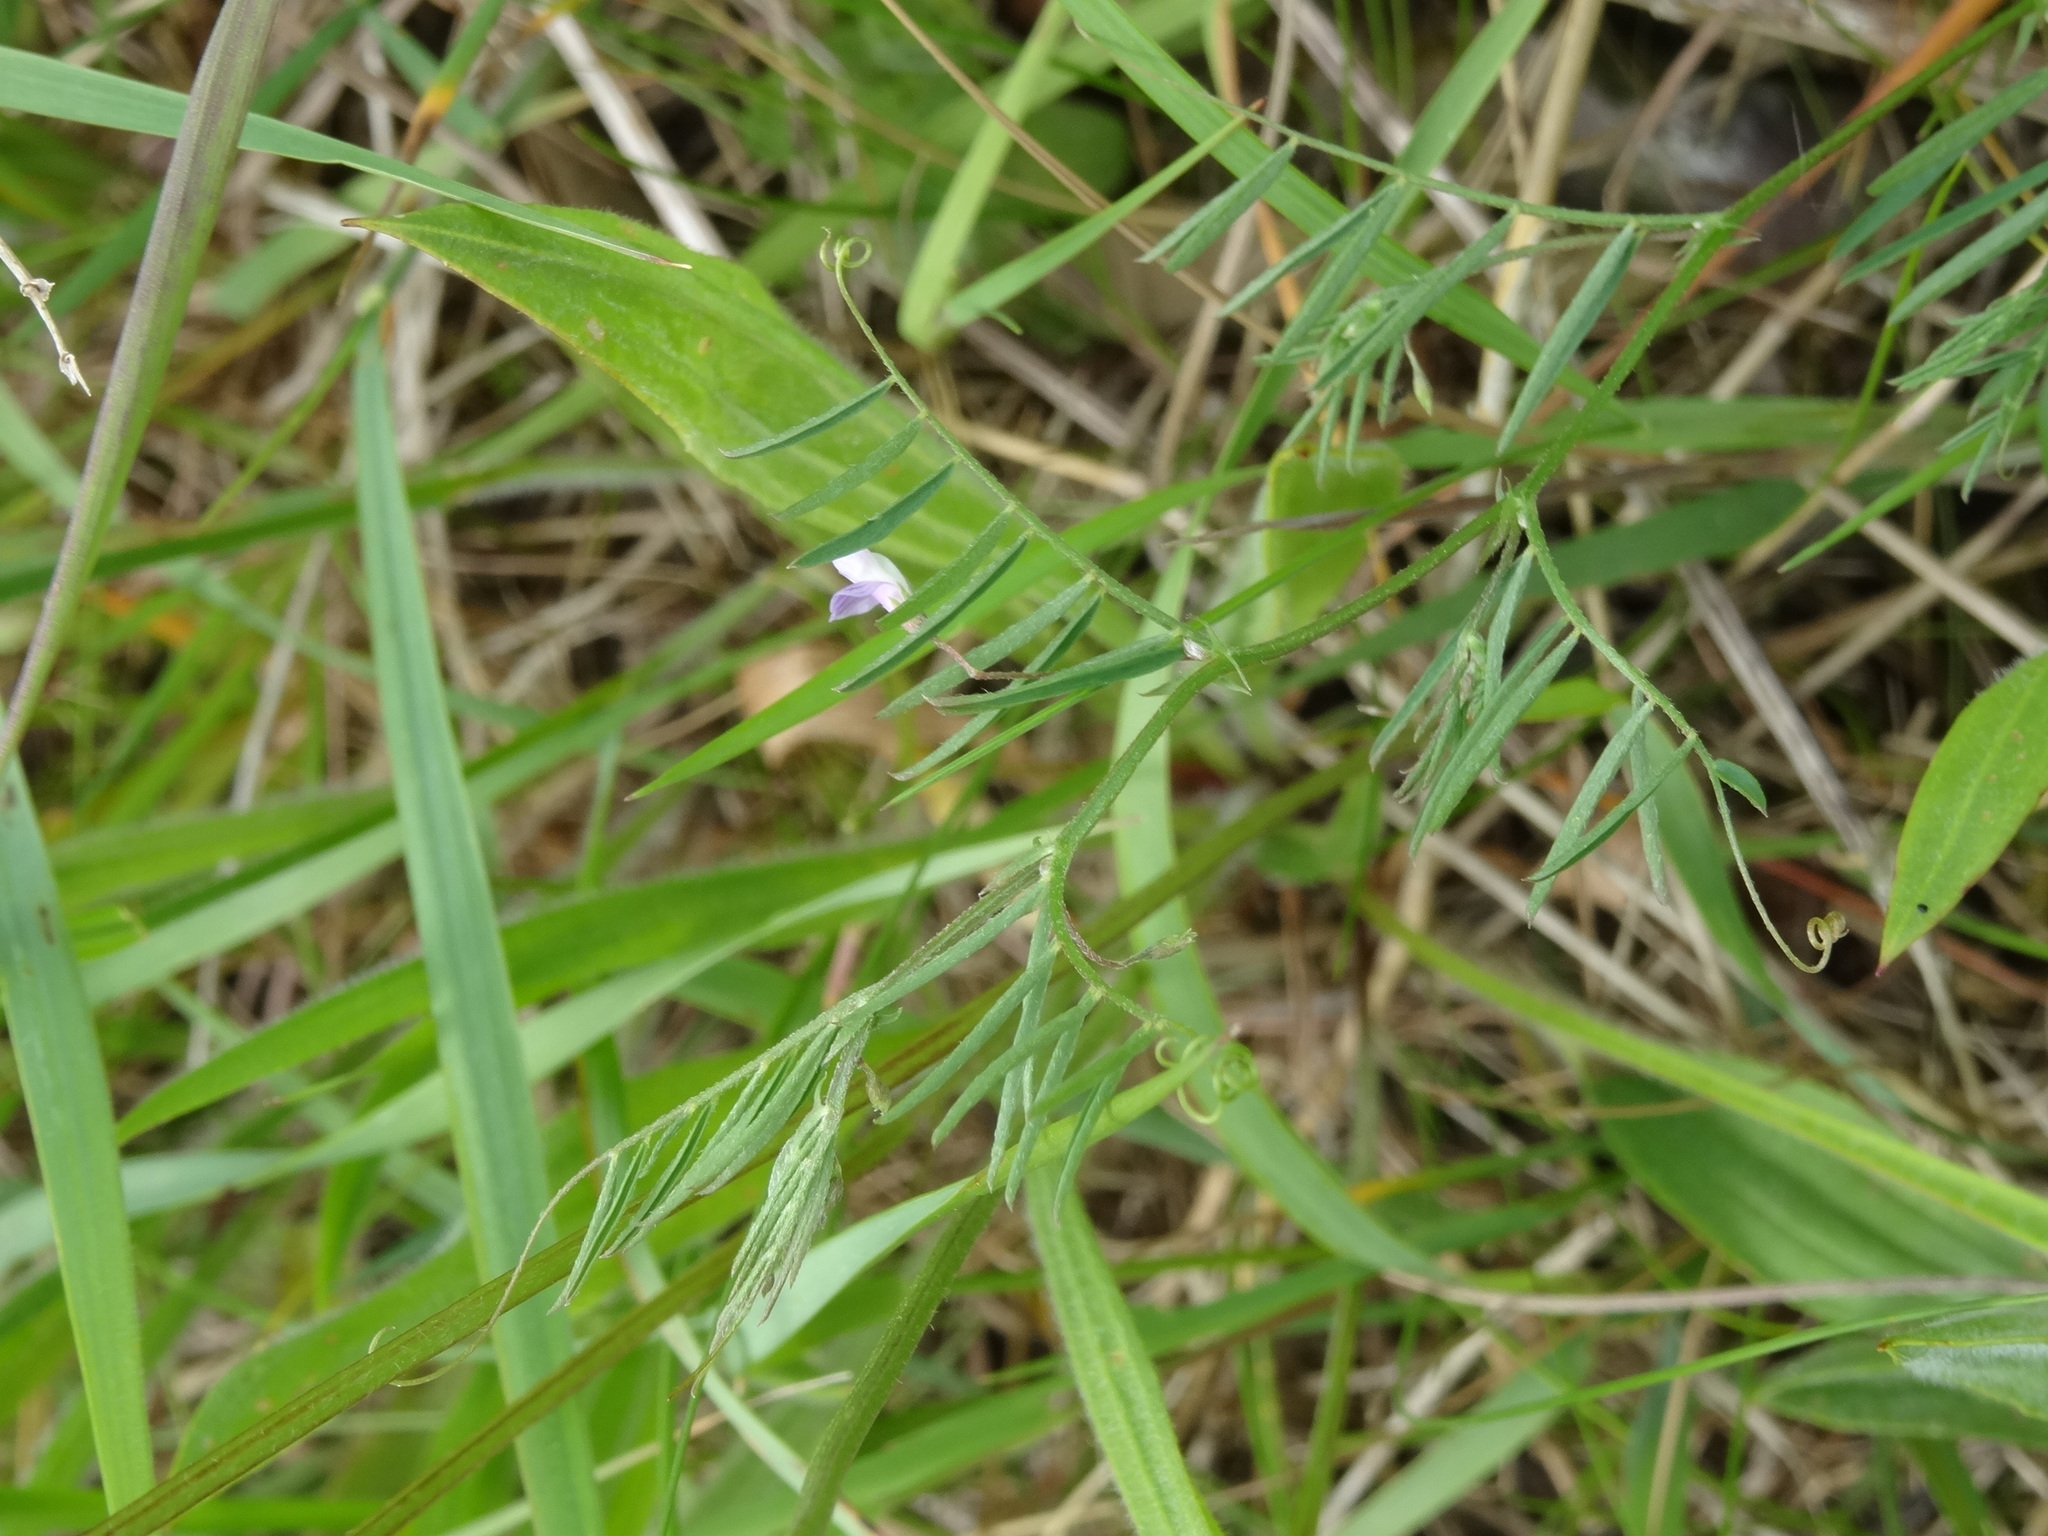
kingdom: Plantae
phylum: Tracheophyta
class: Magnoliopsida
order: Fabales
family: Fabaceae
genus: Vicia
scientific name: Vicia tetrasperma
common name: Smooth tare
